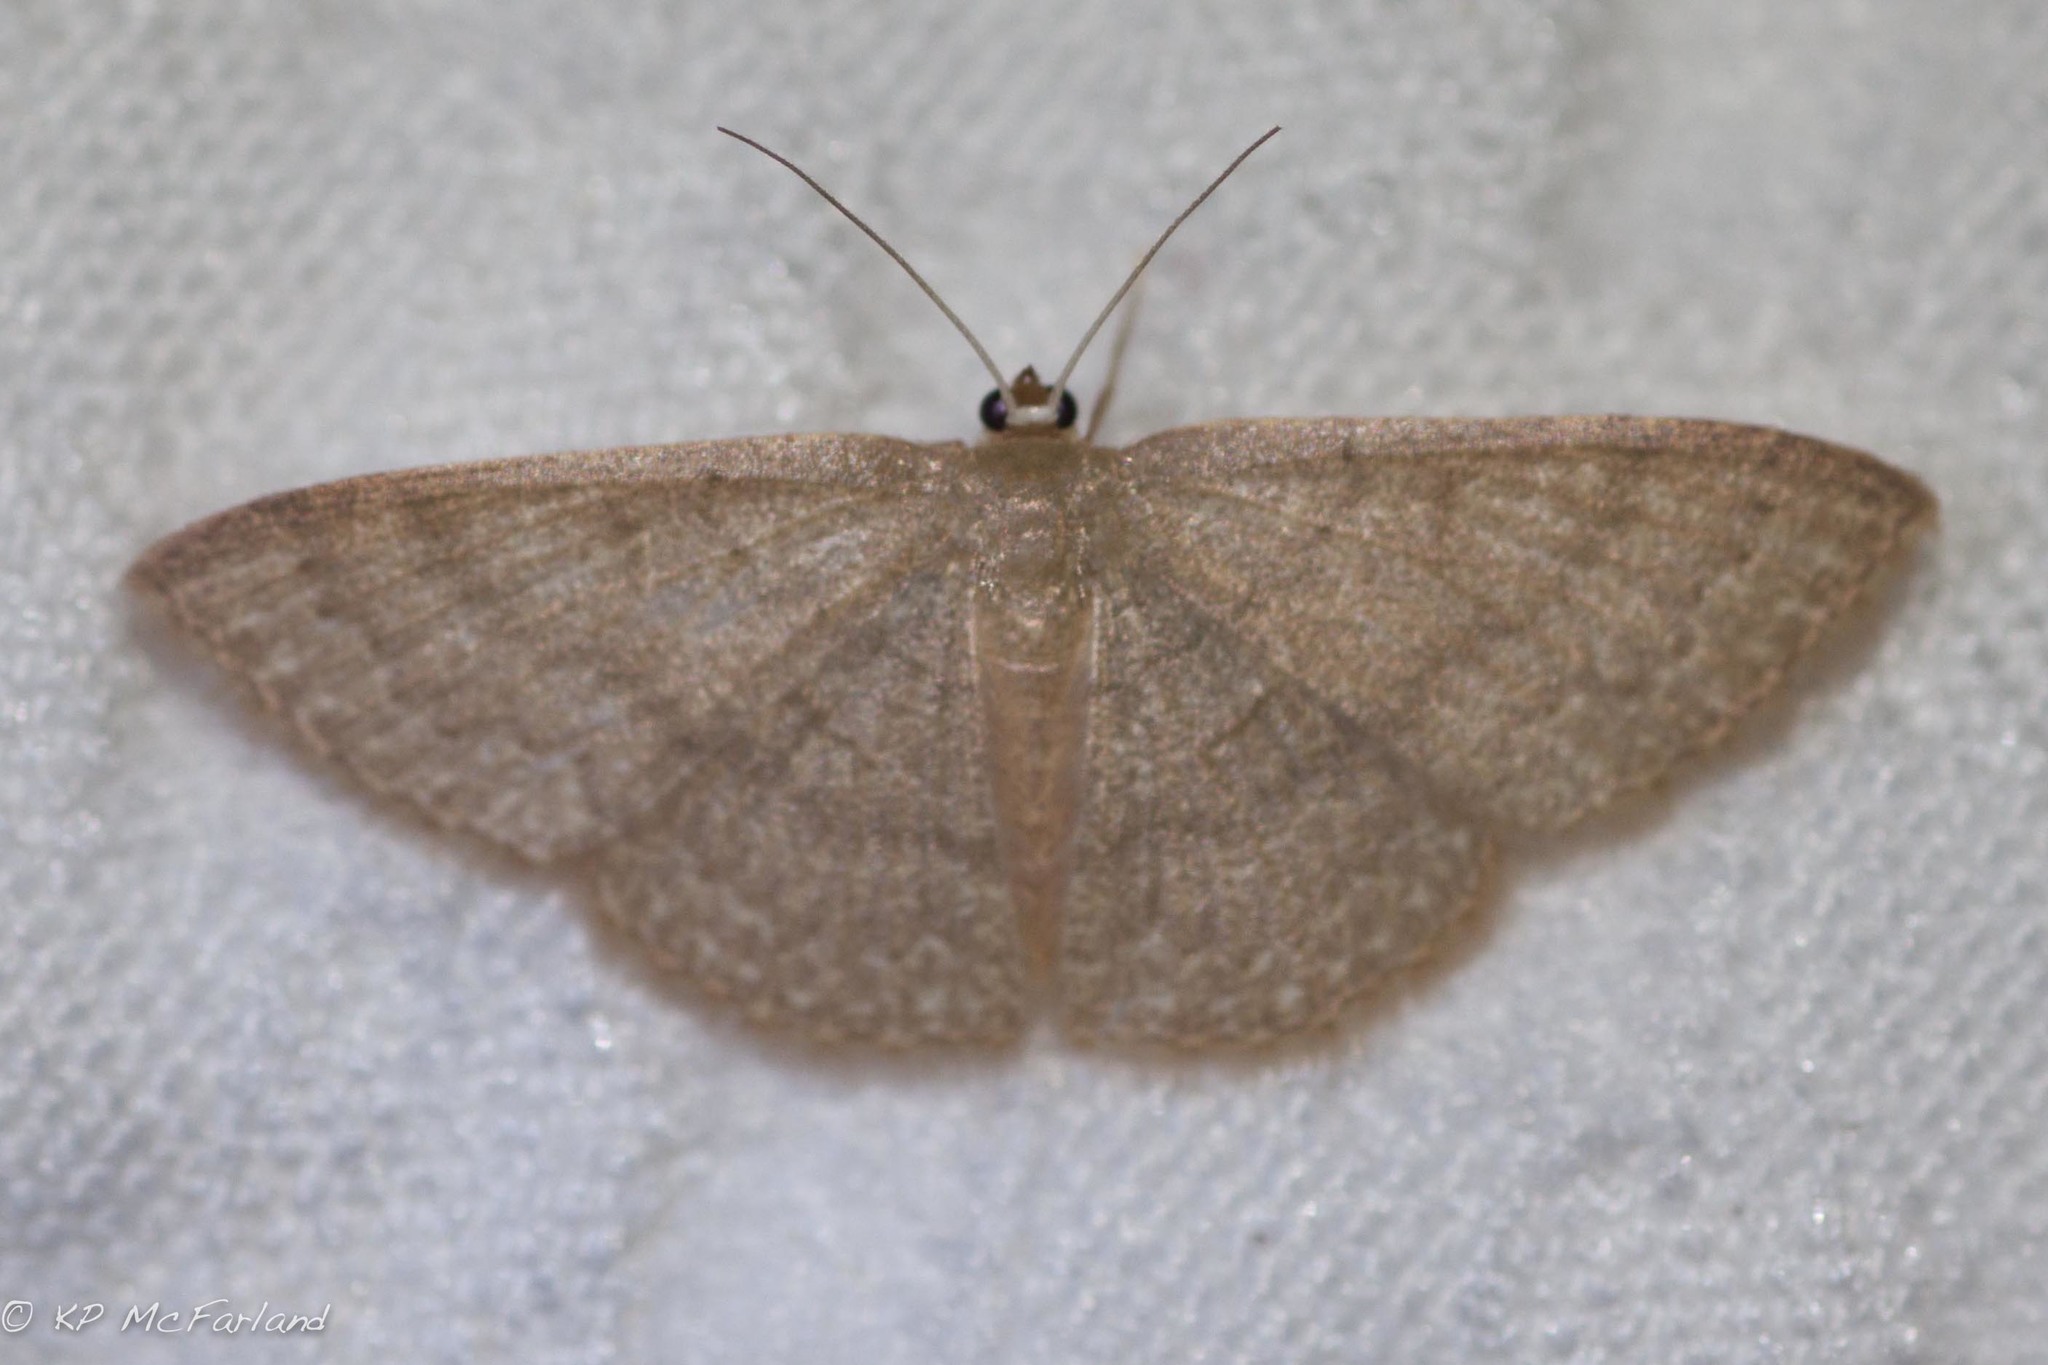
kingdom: Animalia
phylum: Arthropoda
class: Insecta
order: Lepidoptera
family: Geometridae
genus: Pleuroprucha
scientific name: Pleuroprucha insulsaria
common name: Common tan wave
